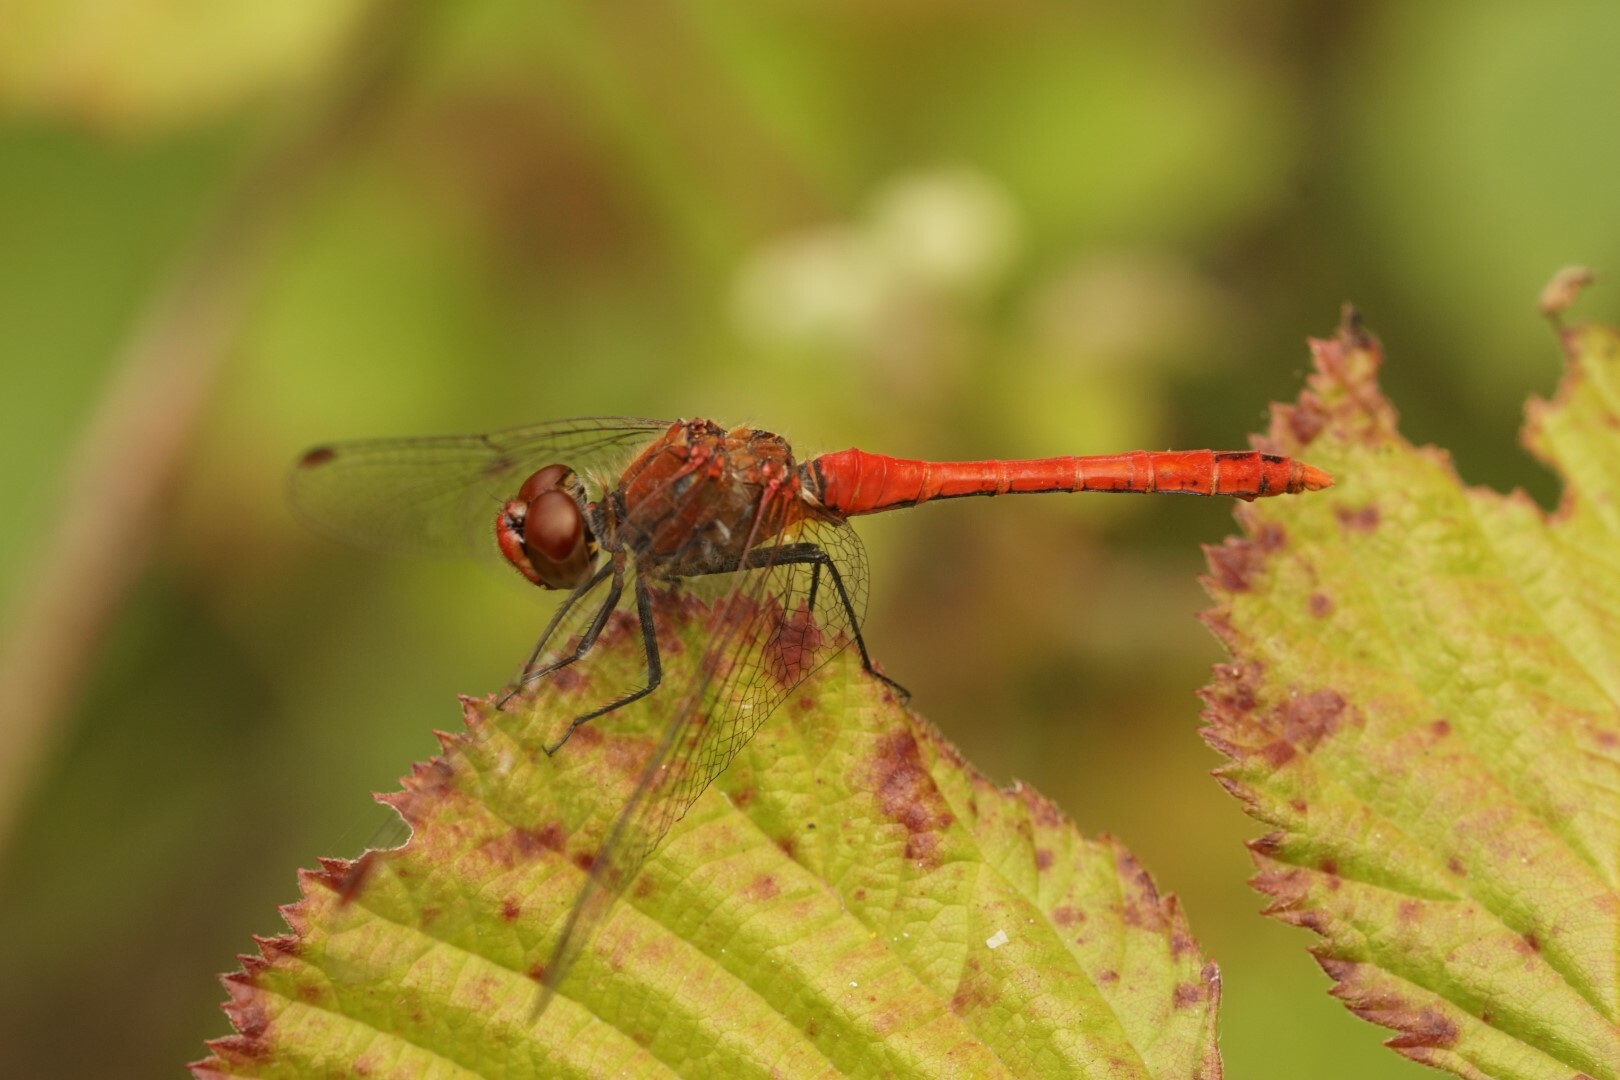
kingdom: Animalia
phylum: Arthropoda
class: Insecta
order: Odonata
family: Libellulidae
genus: Sympetrum
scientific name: Sympetrum sanguineum
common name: Ruddy darter
